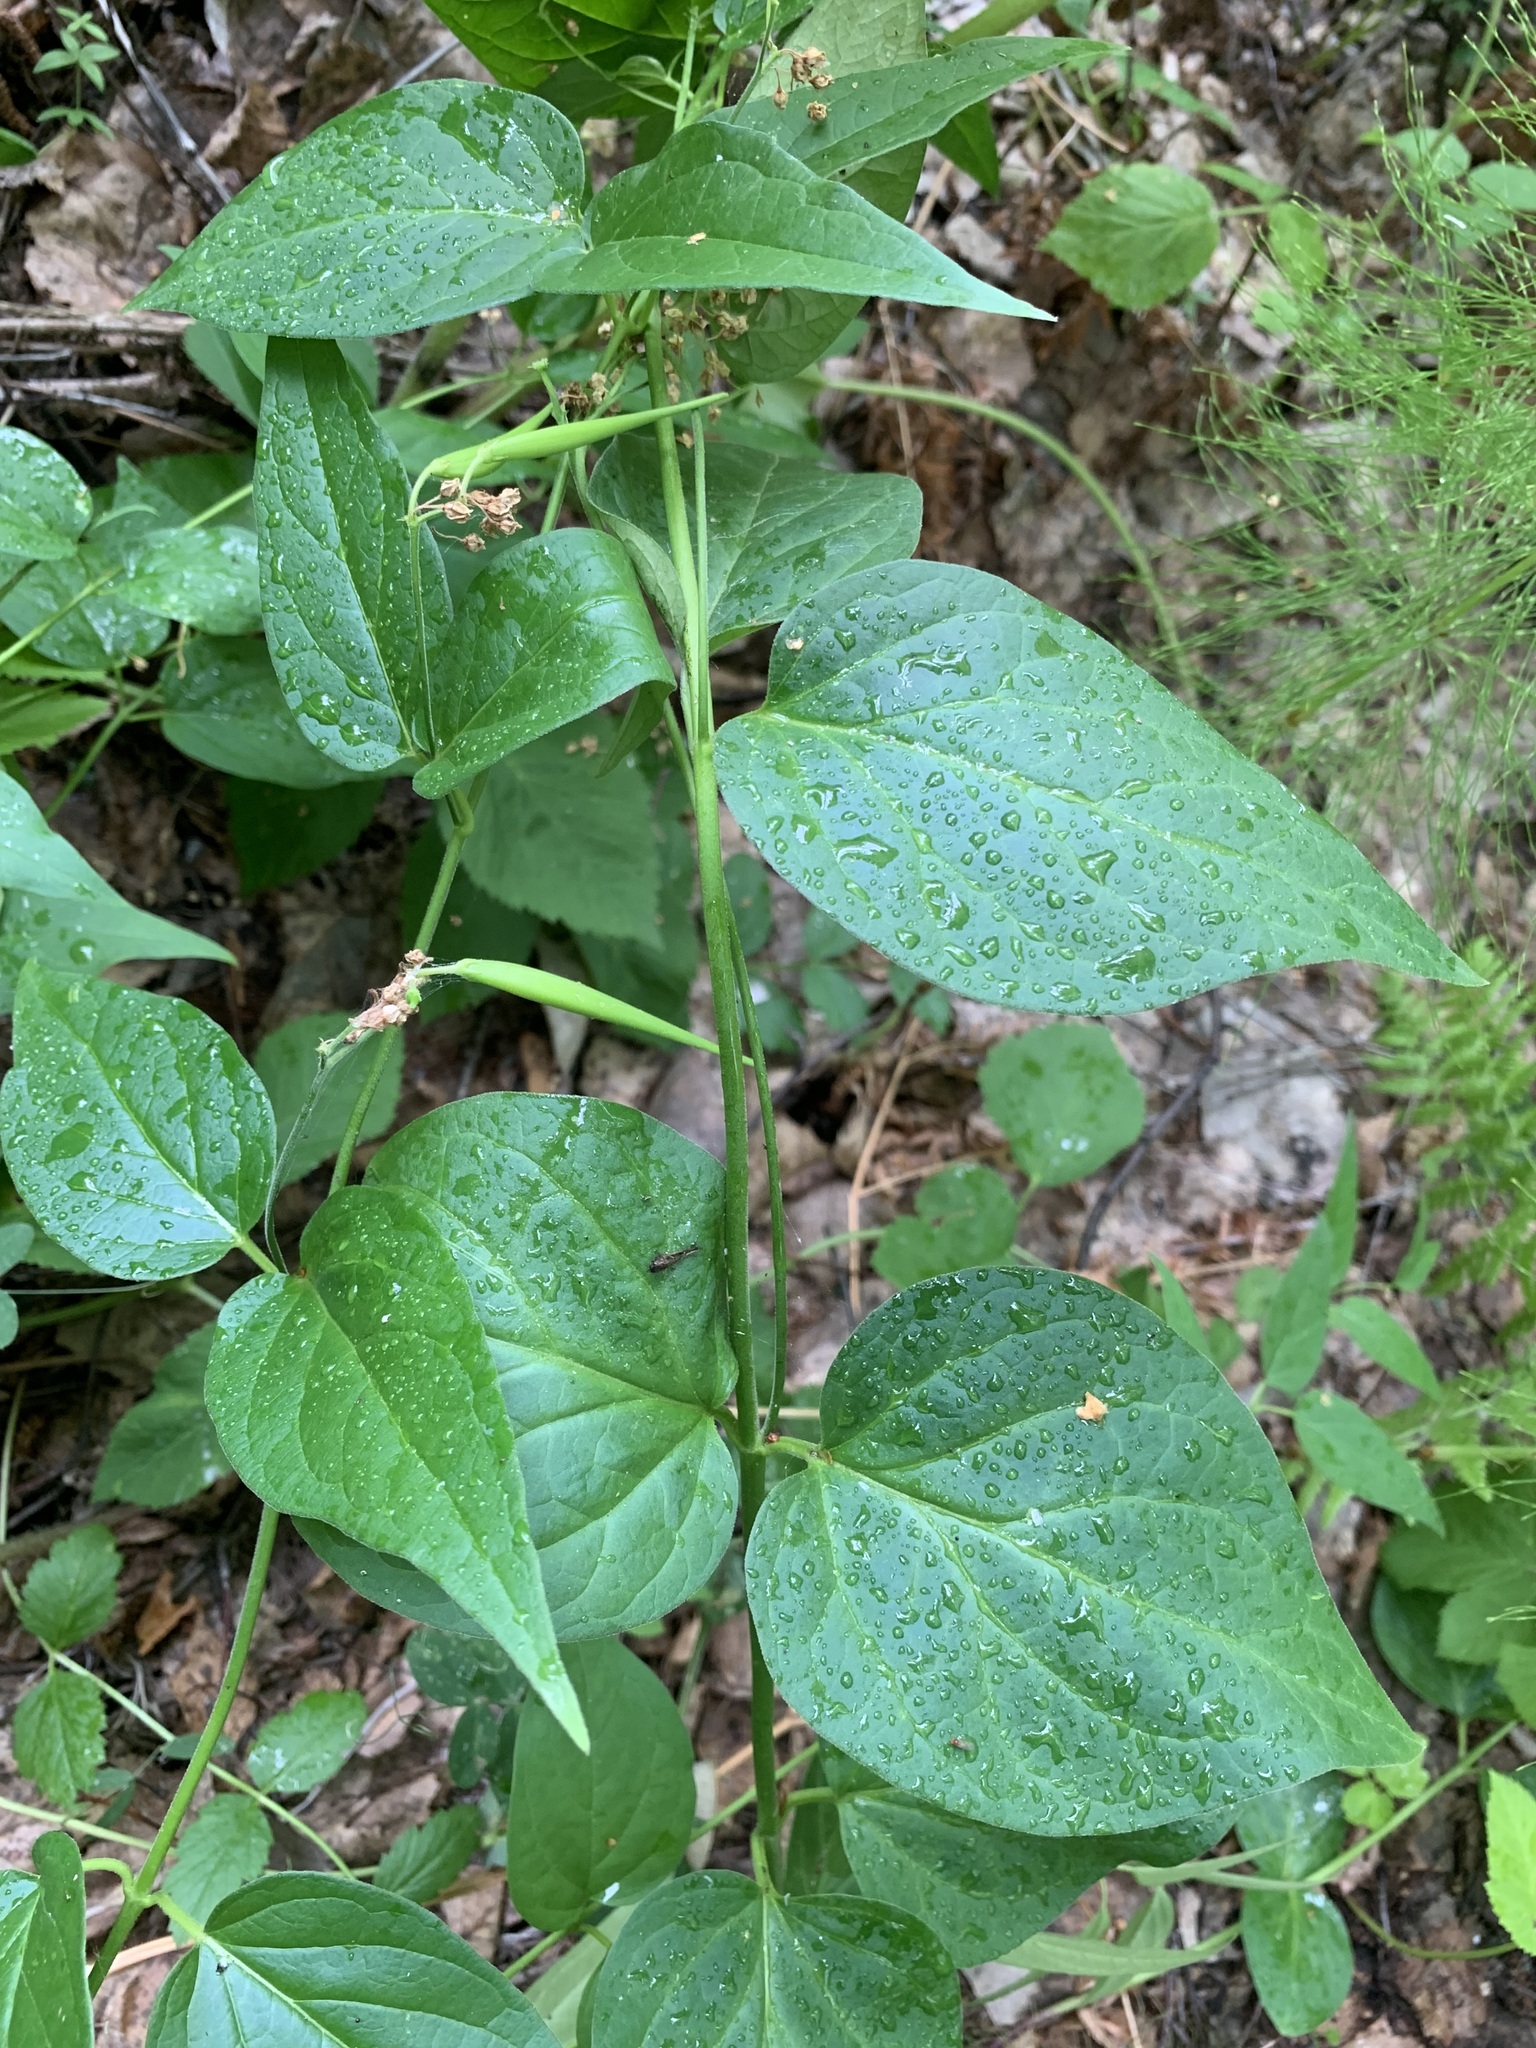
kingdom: Plantae
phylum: Tracheophyta
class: Magnoliopsida
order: Gentianales
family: Apocynaceae
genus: Vincetoxicum
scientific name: Vincetoxicum hirundinaria
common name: White swallowwort
